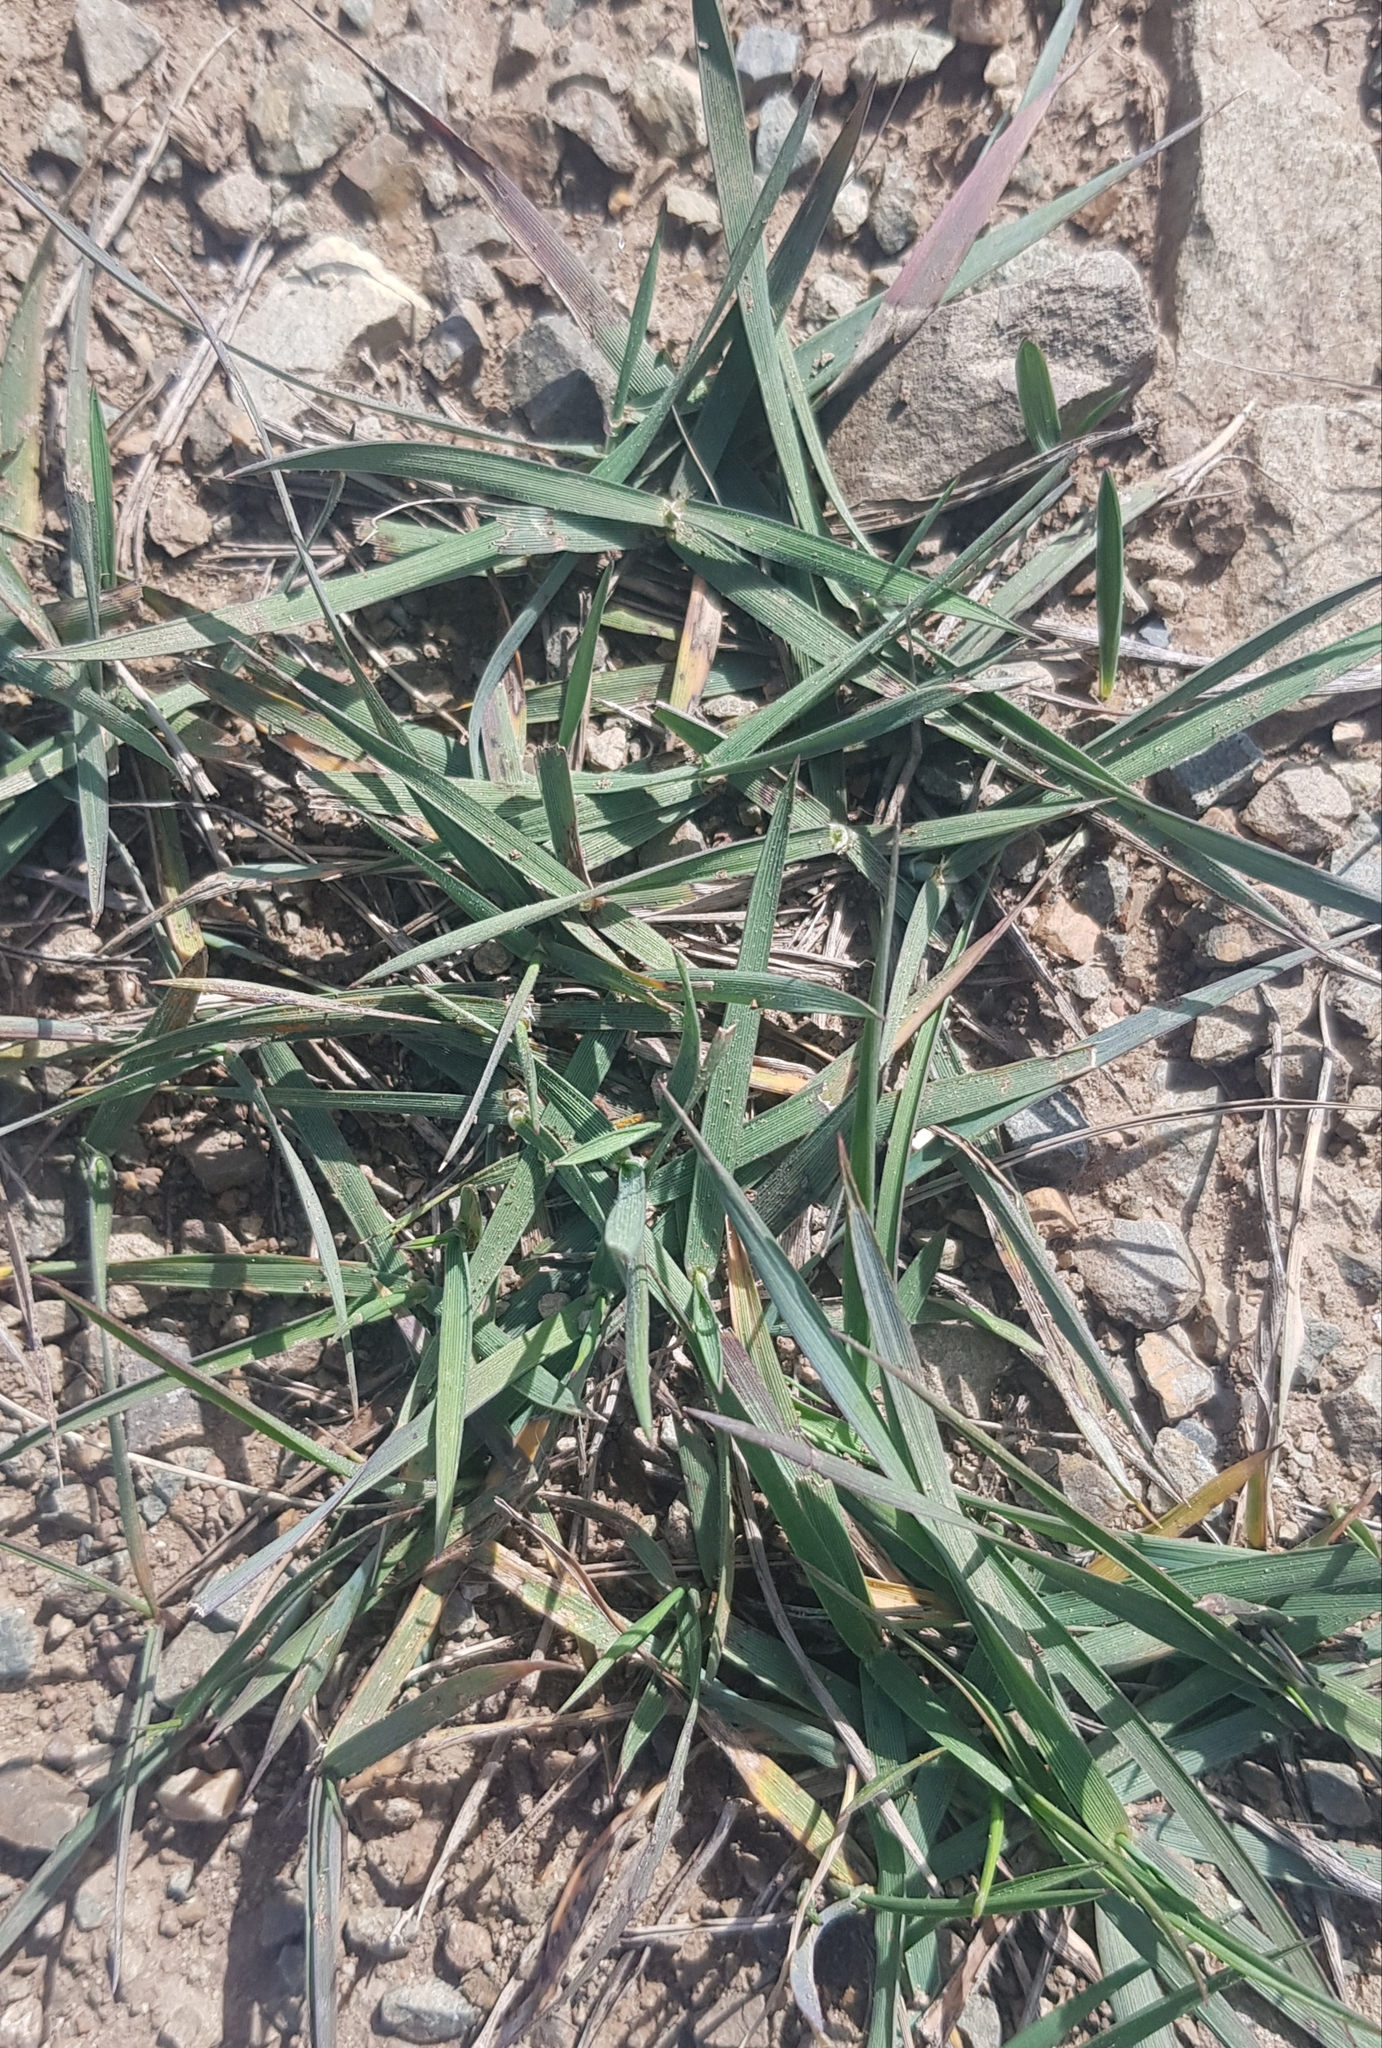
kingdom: Plantae
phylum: Tracheophyta
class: Liliopsida
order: Poales
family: Poaceae
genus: Leymus
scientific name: Leymus chinensis
